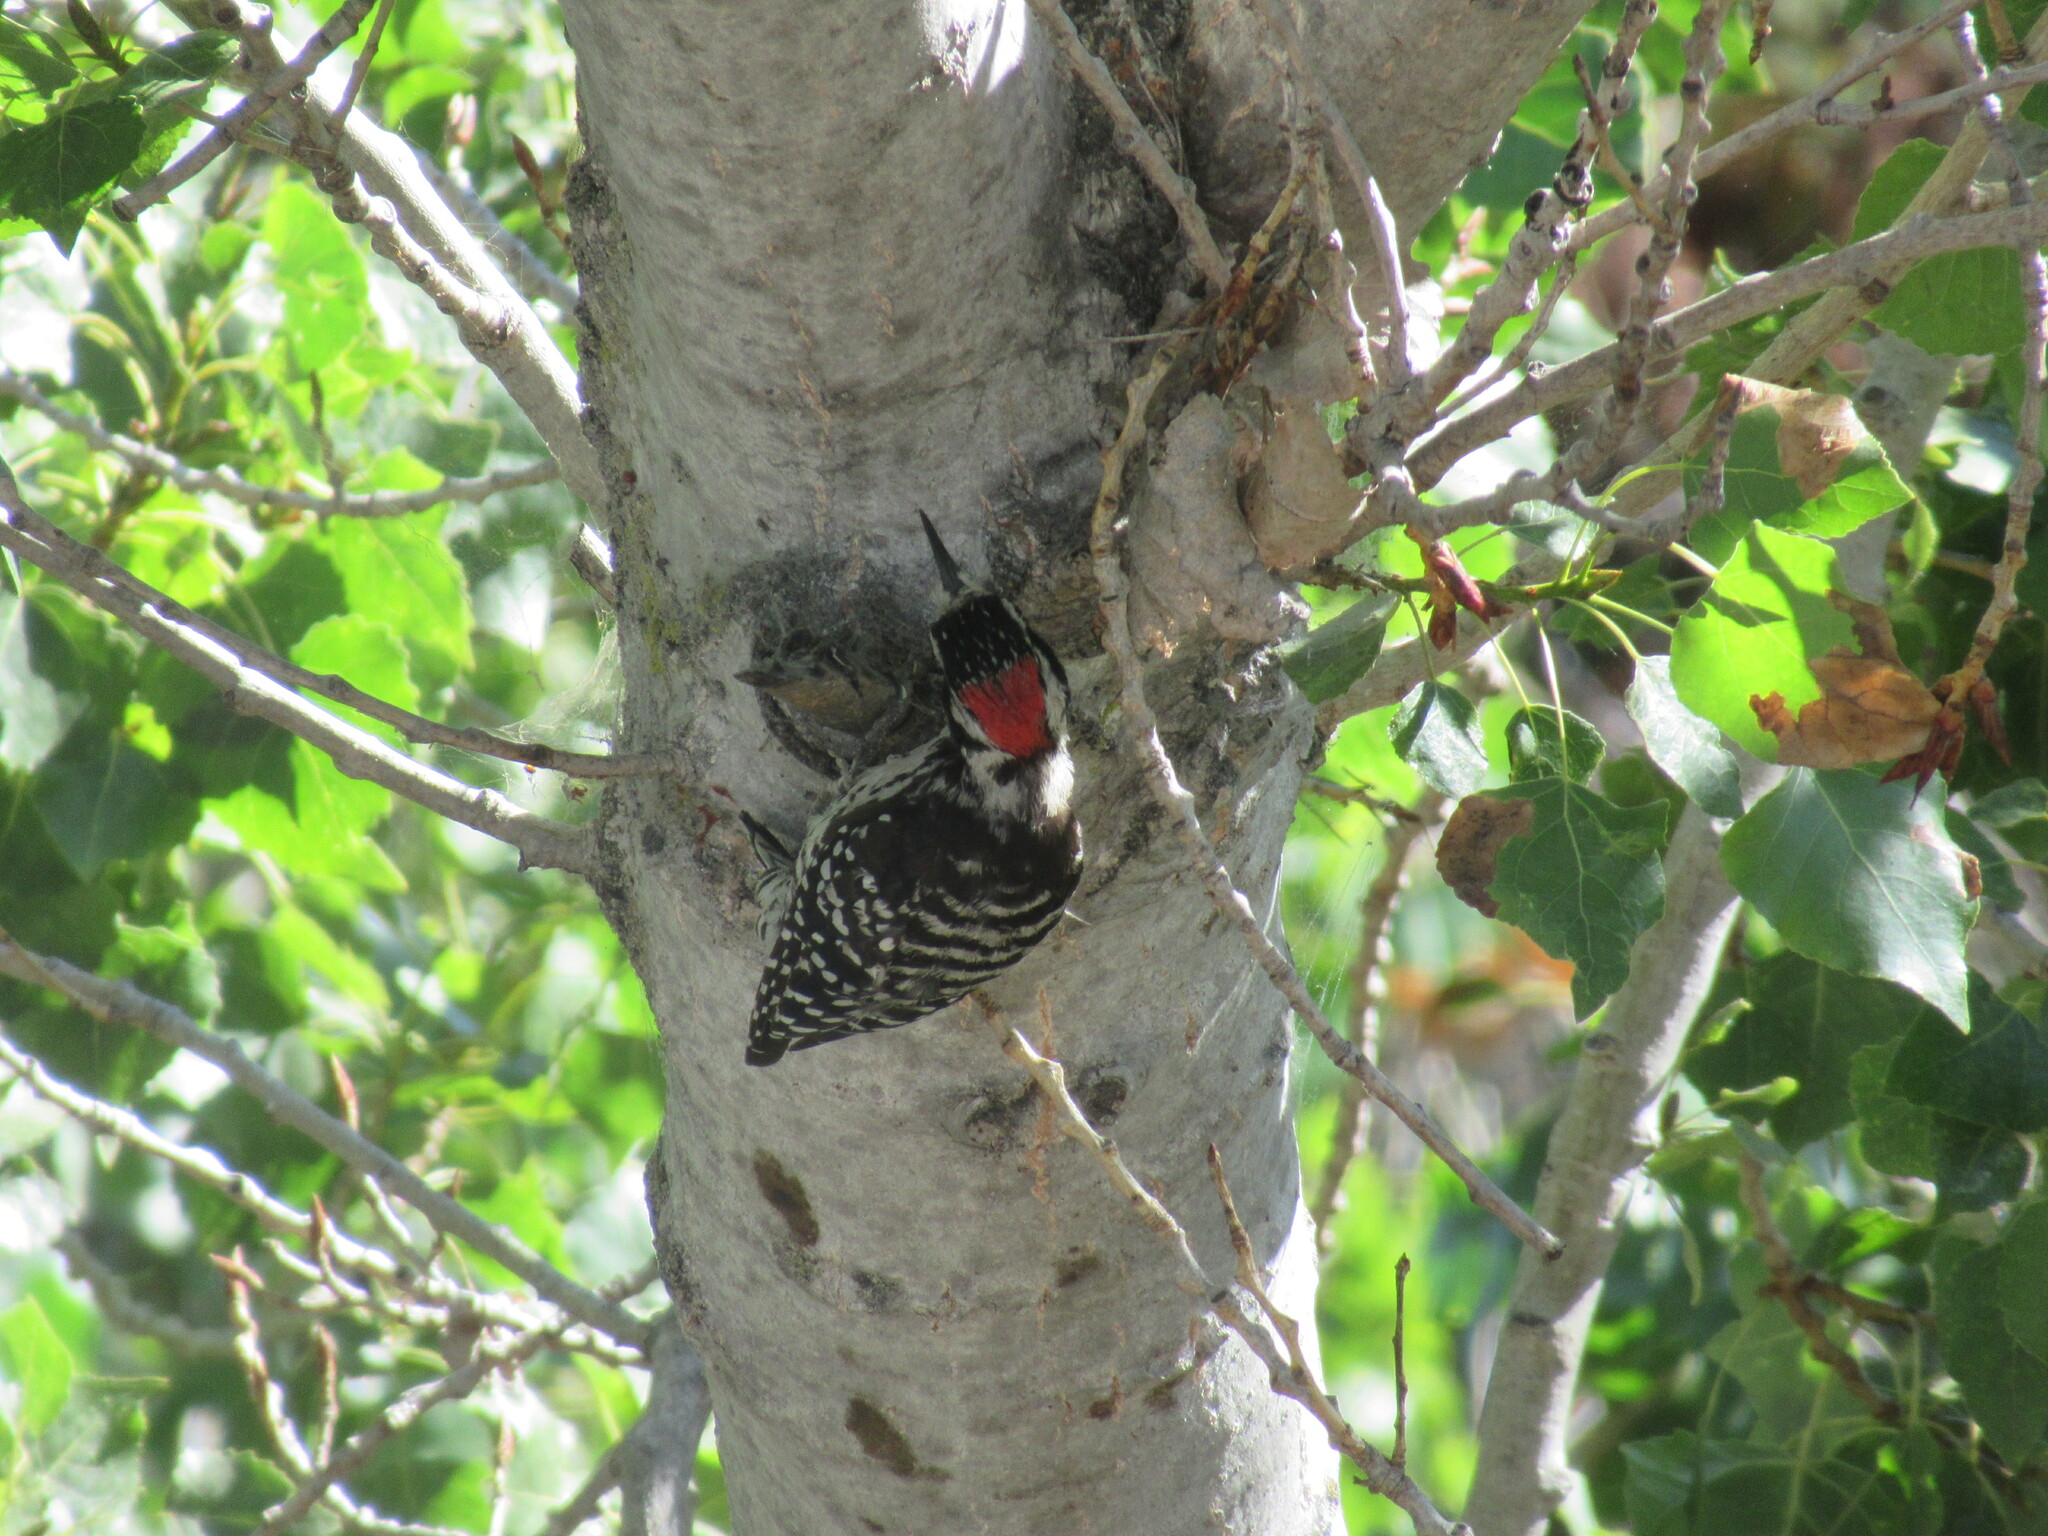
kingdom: Animalia
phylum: Chordata
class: Aves
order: Piciformes
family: Picidae
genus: Dryobates
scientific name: Dryobates nuttallii
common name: Nuttall's woodpecker
